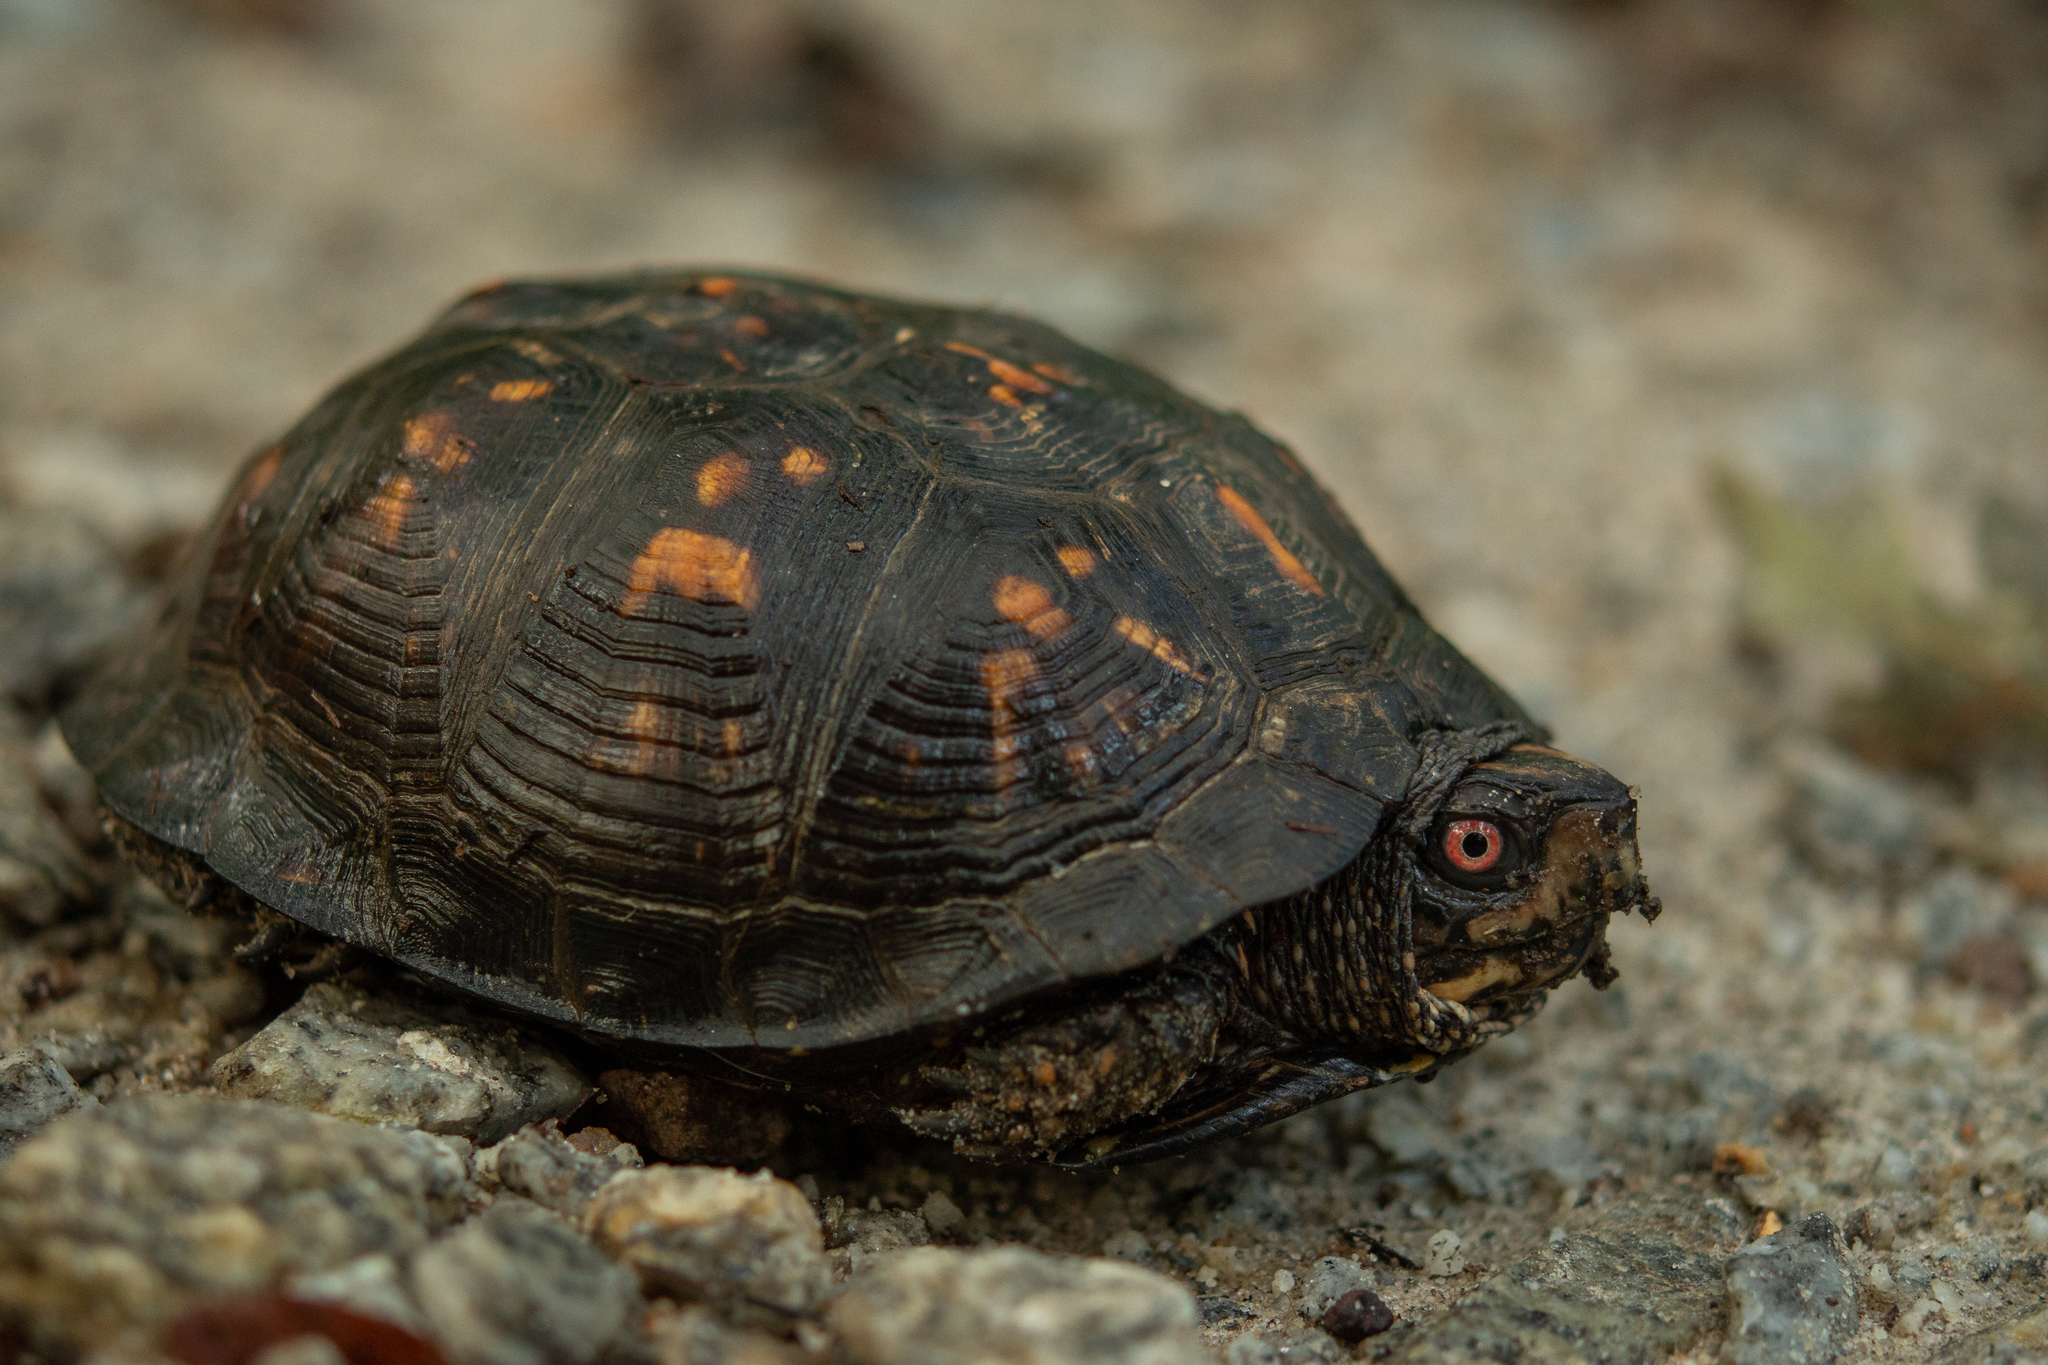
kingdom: Animalia
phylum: Chordata
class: Testudines
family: Emydidae
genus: Terrapene
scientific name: Terrapene carolina
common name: Common box turtle
